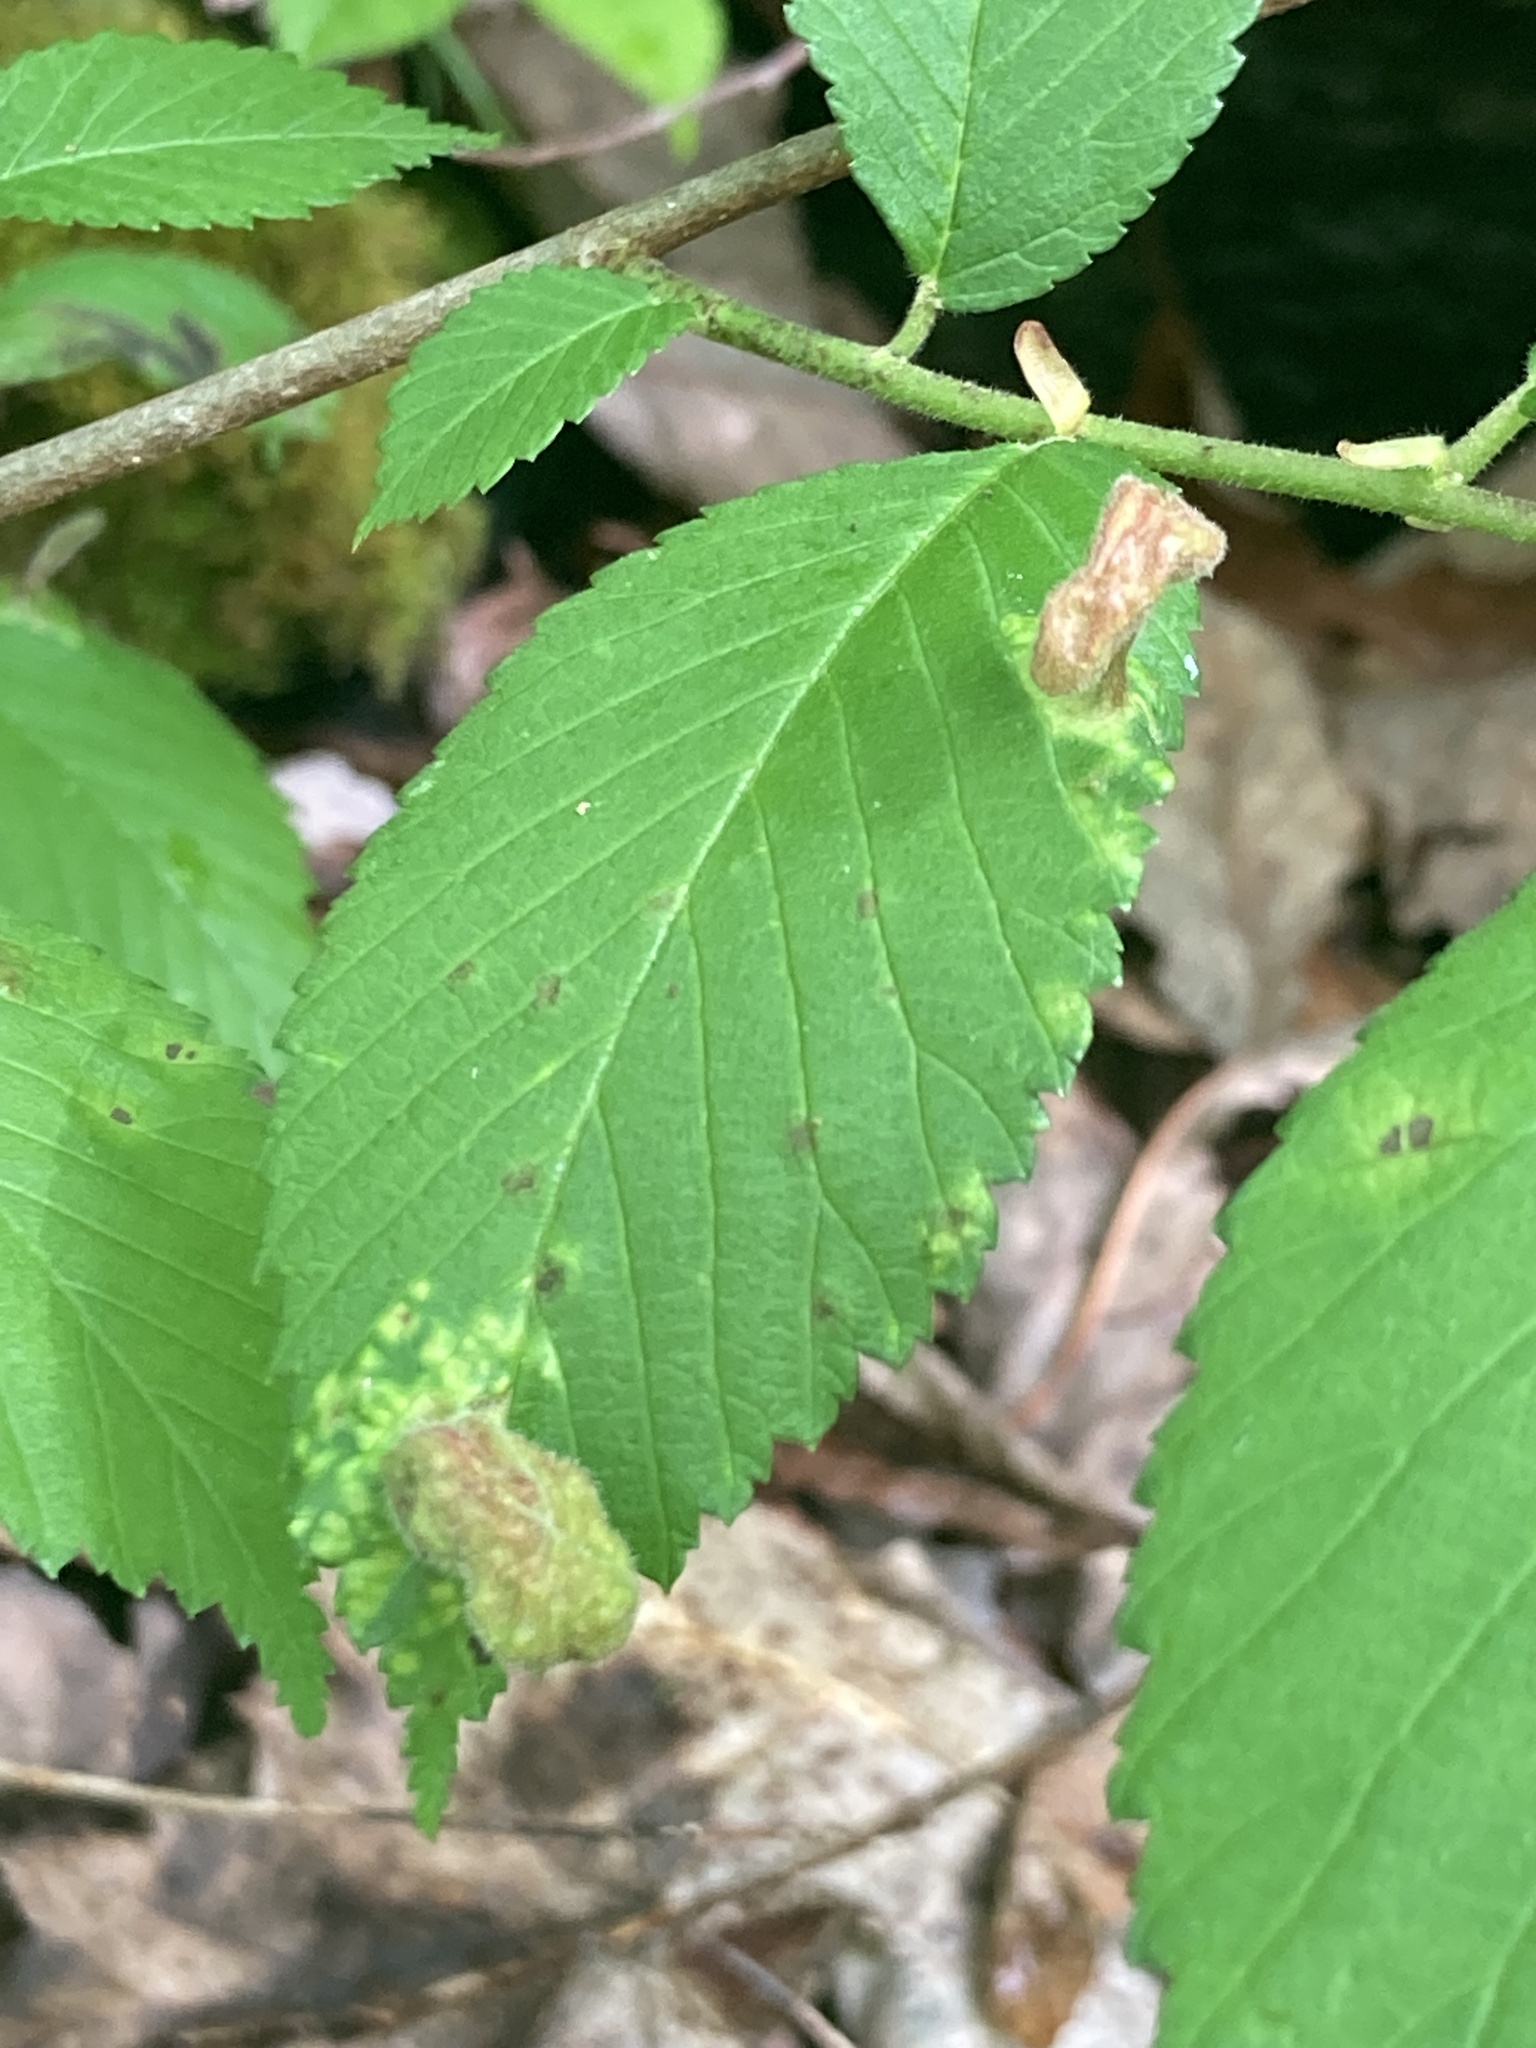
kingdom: Animalia
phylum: Arthropoda
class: Insecta
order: Hemiptera
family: Aphididae
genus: Tetraneura
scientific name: Tetraneura nigriabdominalis
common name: Aphid
